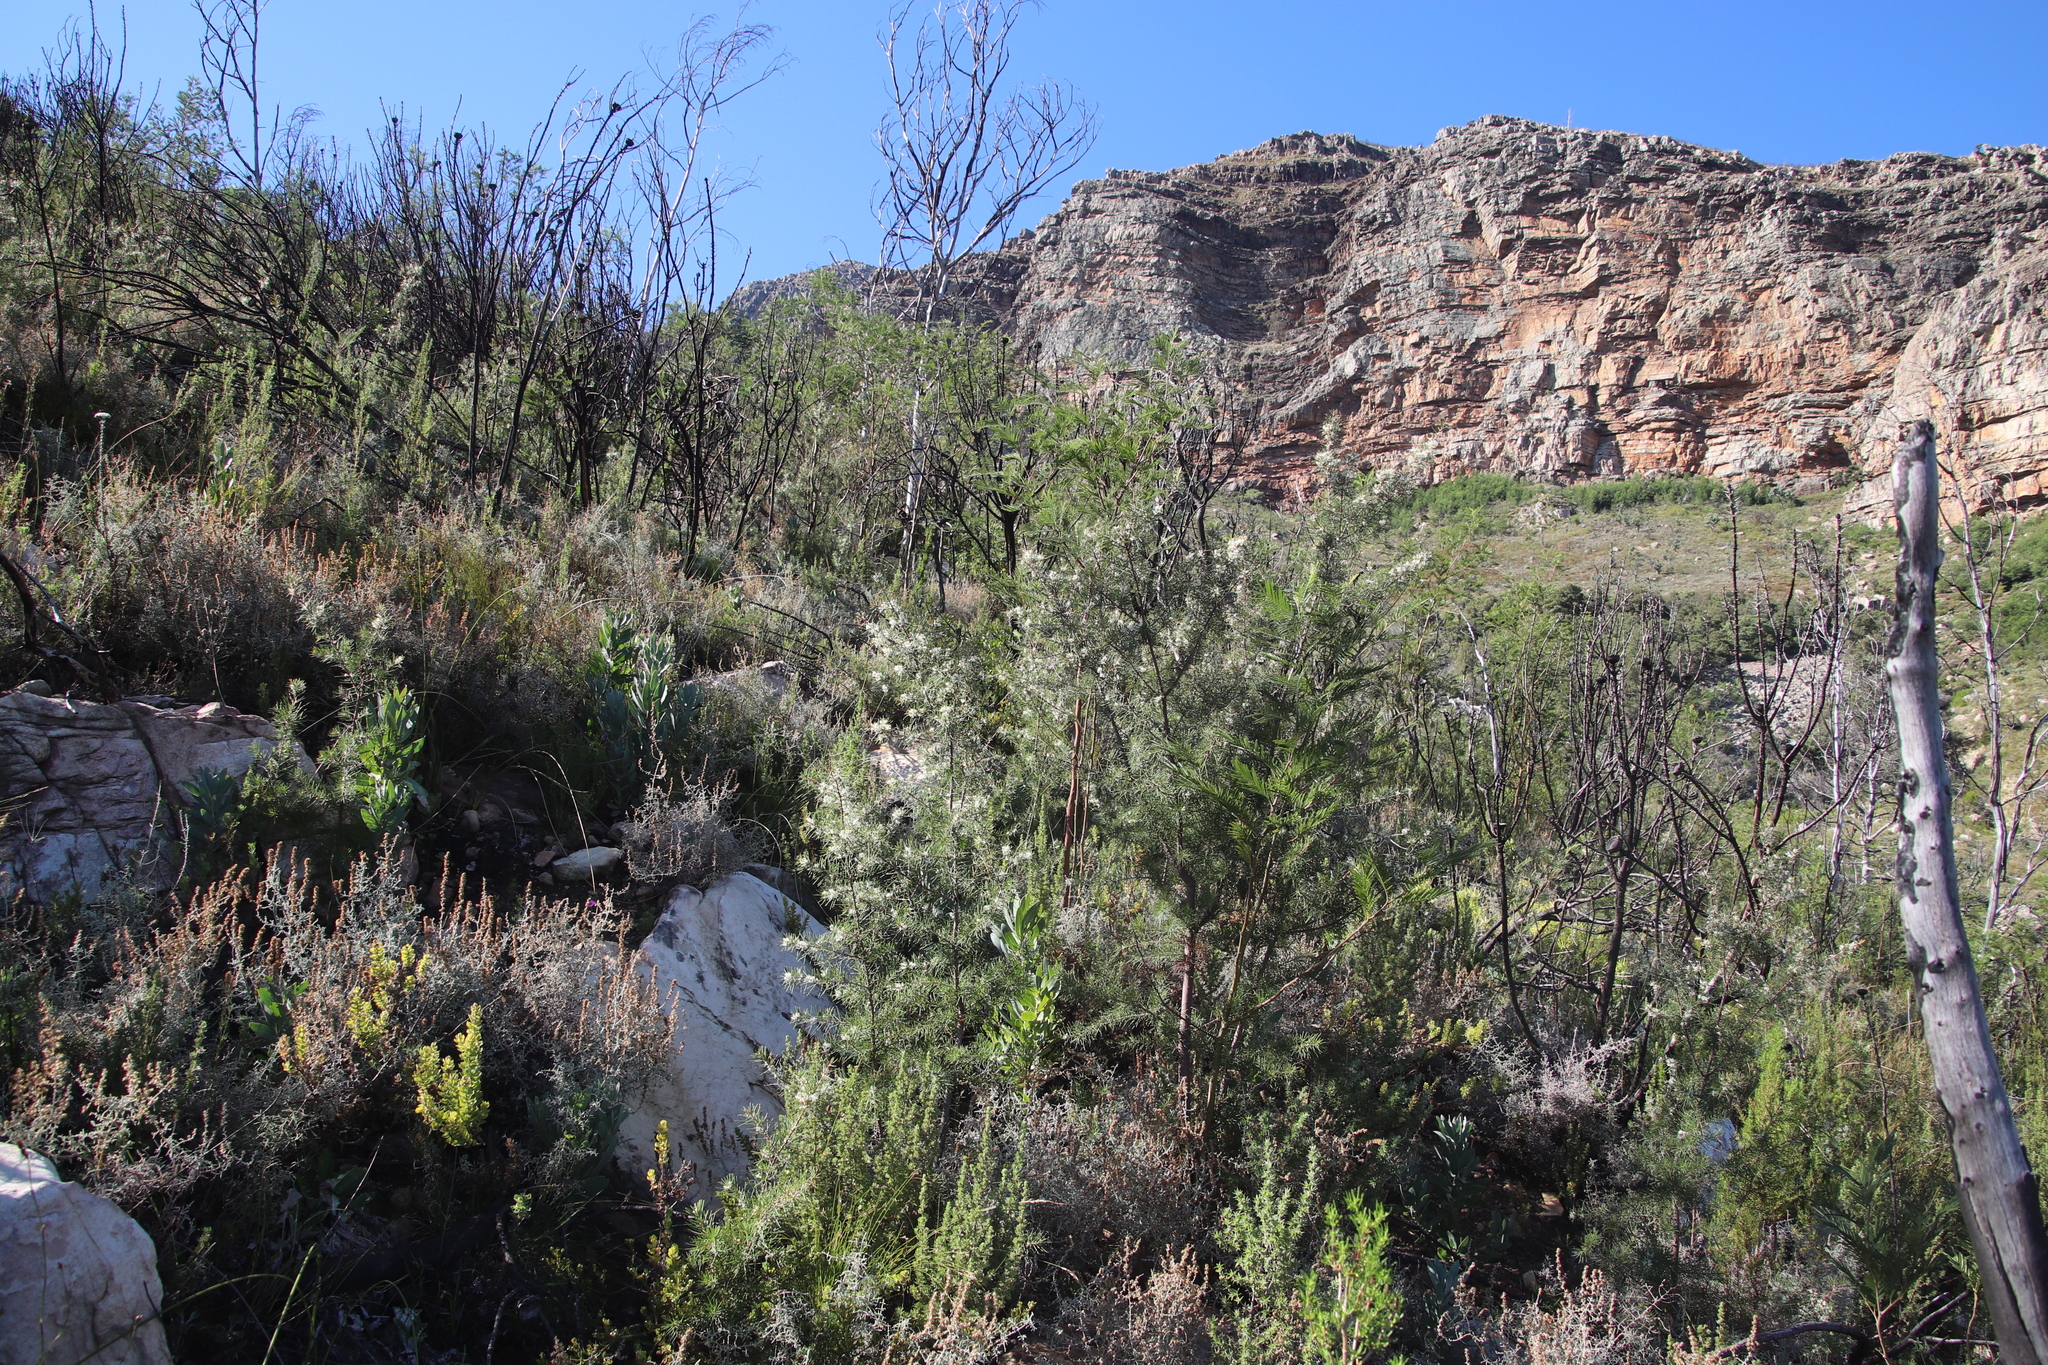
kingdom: Plantae
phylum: Tracheophyta
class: Magnoliopsida
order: Proteales
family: Proteaceae
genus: Hakea
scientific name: Hakea sericea
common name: Needle bush
